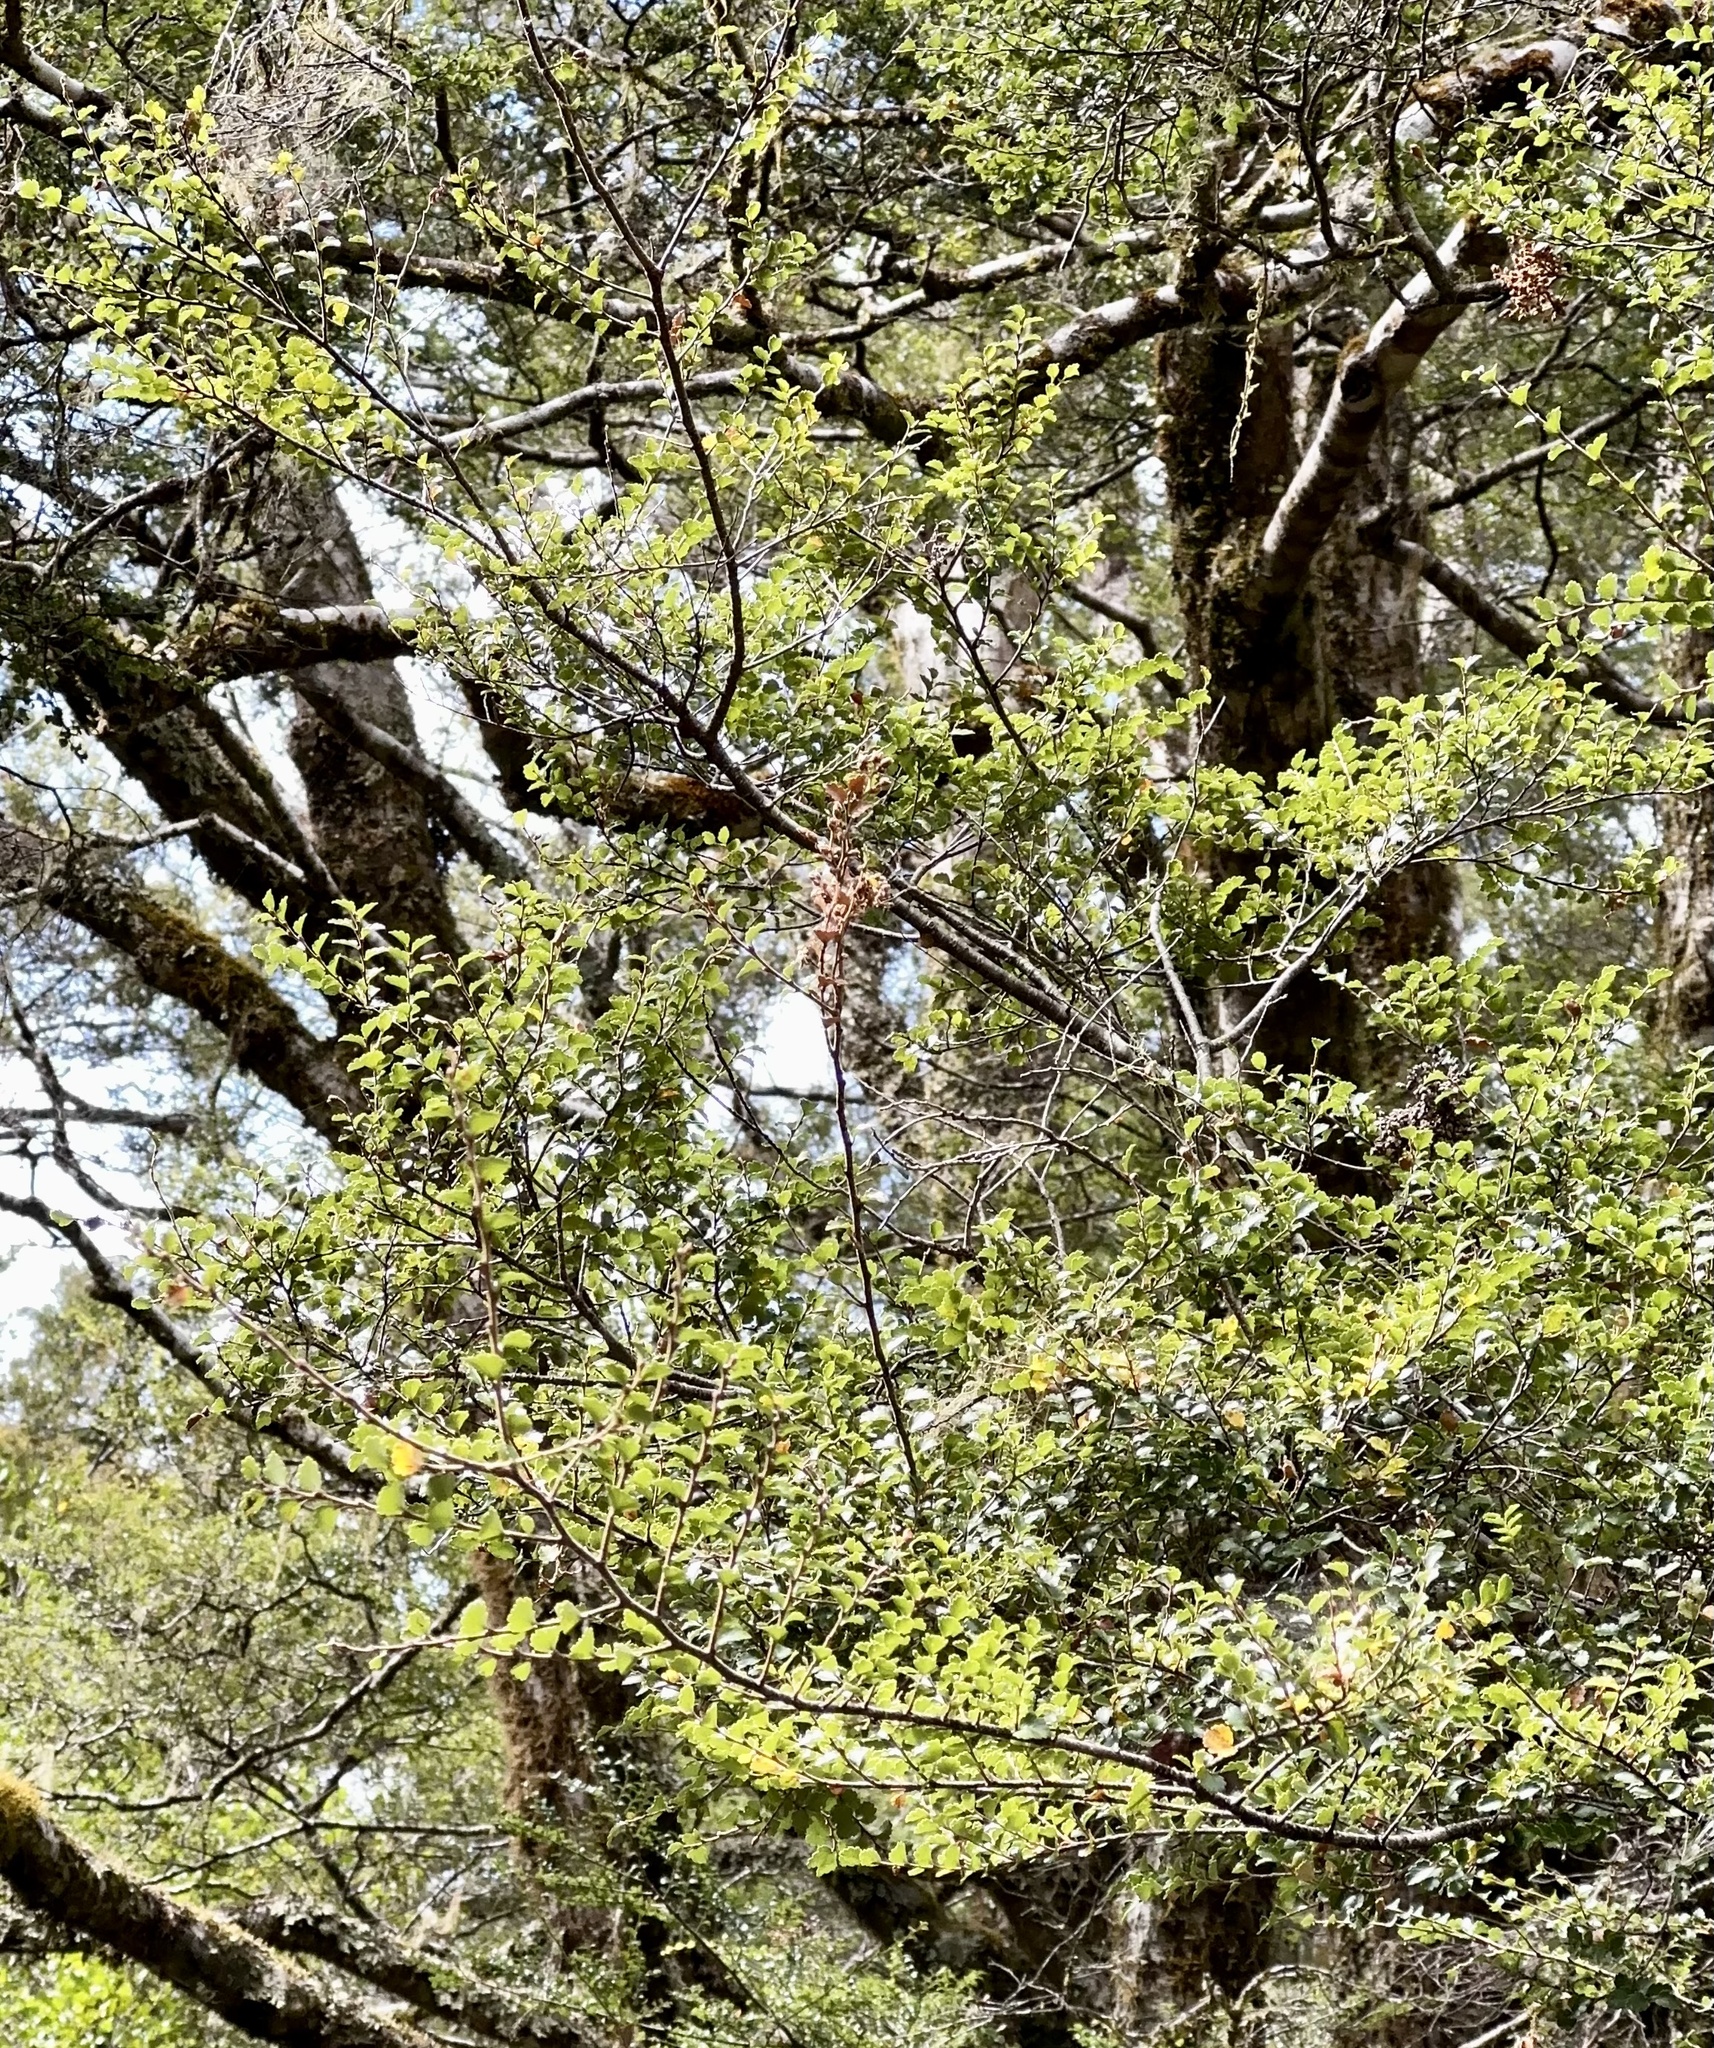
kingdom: Plantae
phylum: Tracheophyta
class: Magnoliopsida
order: Fagales
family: Nothofagaceae
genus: Nothofagus
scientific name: Nothofagus menziesii
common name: Silver beech
